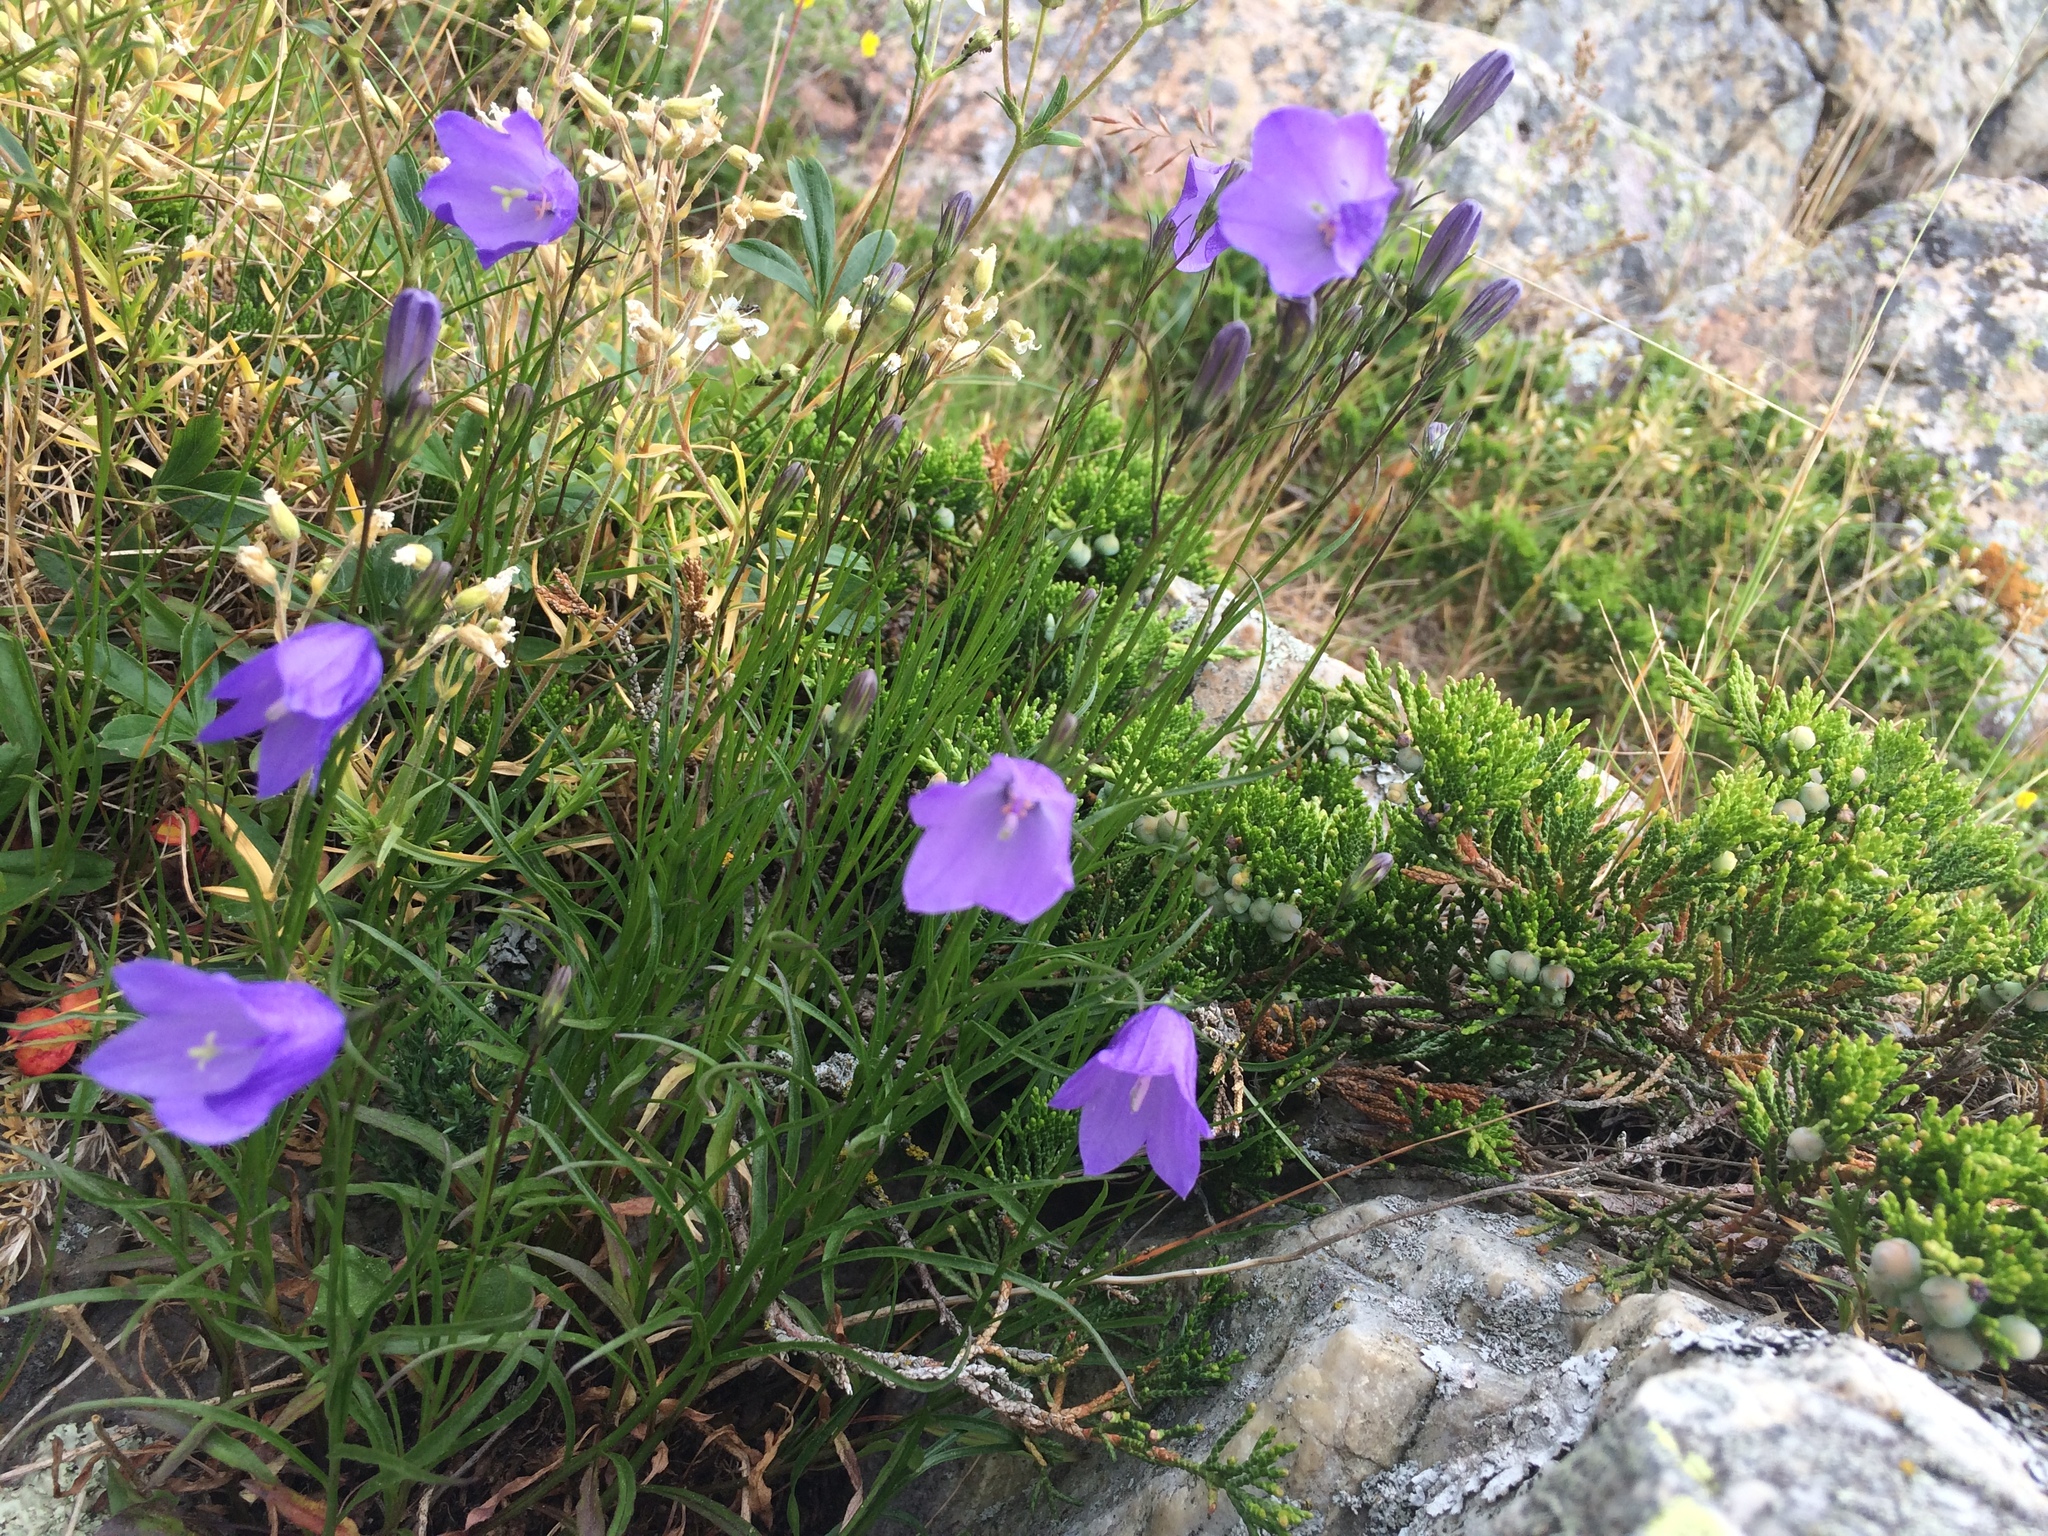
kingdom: Plantae
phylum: Tracheophyta
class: Magnoliopsida
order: Asterales
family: Campanulaceae
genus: Campanula
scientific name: Campanula intercedens
